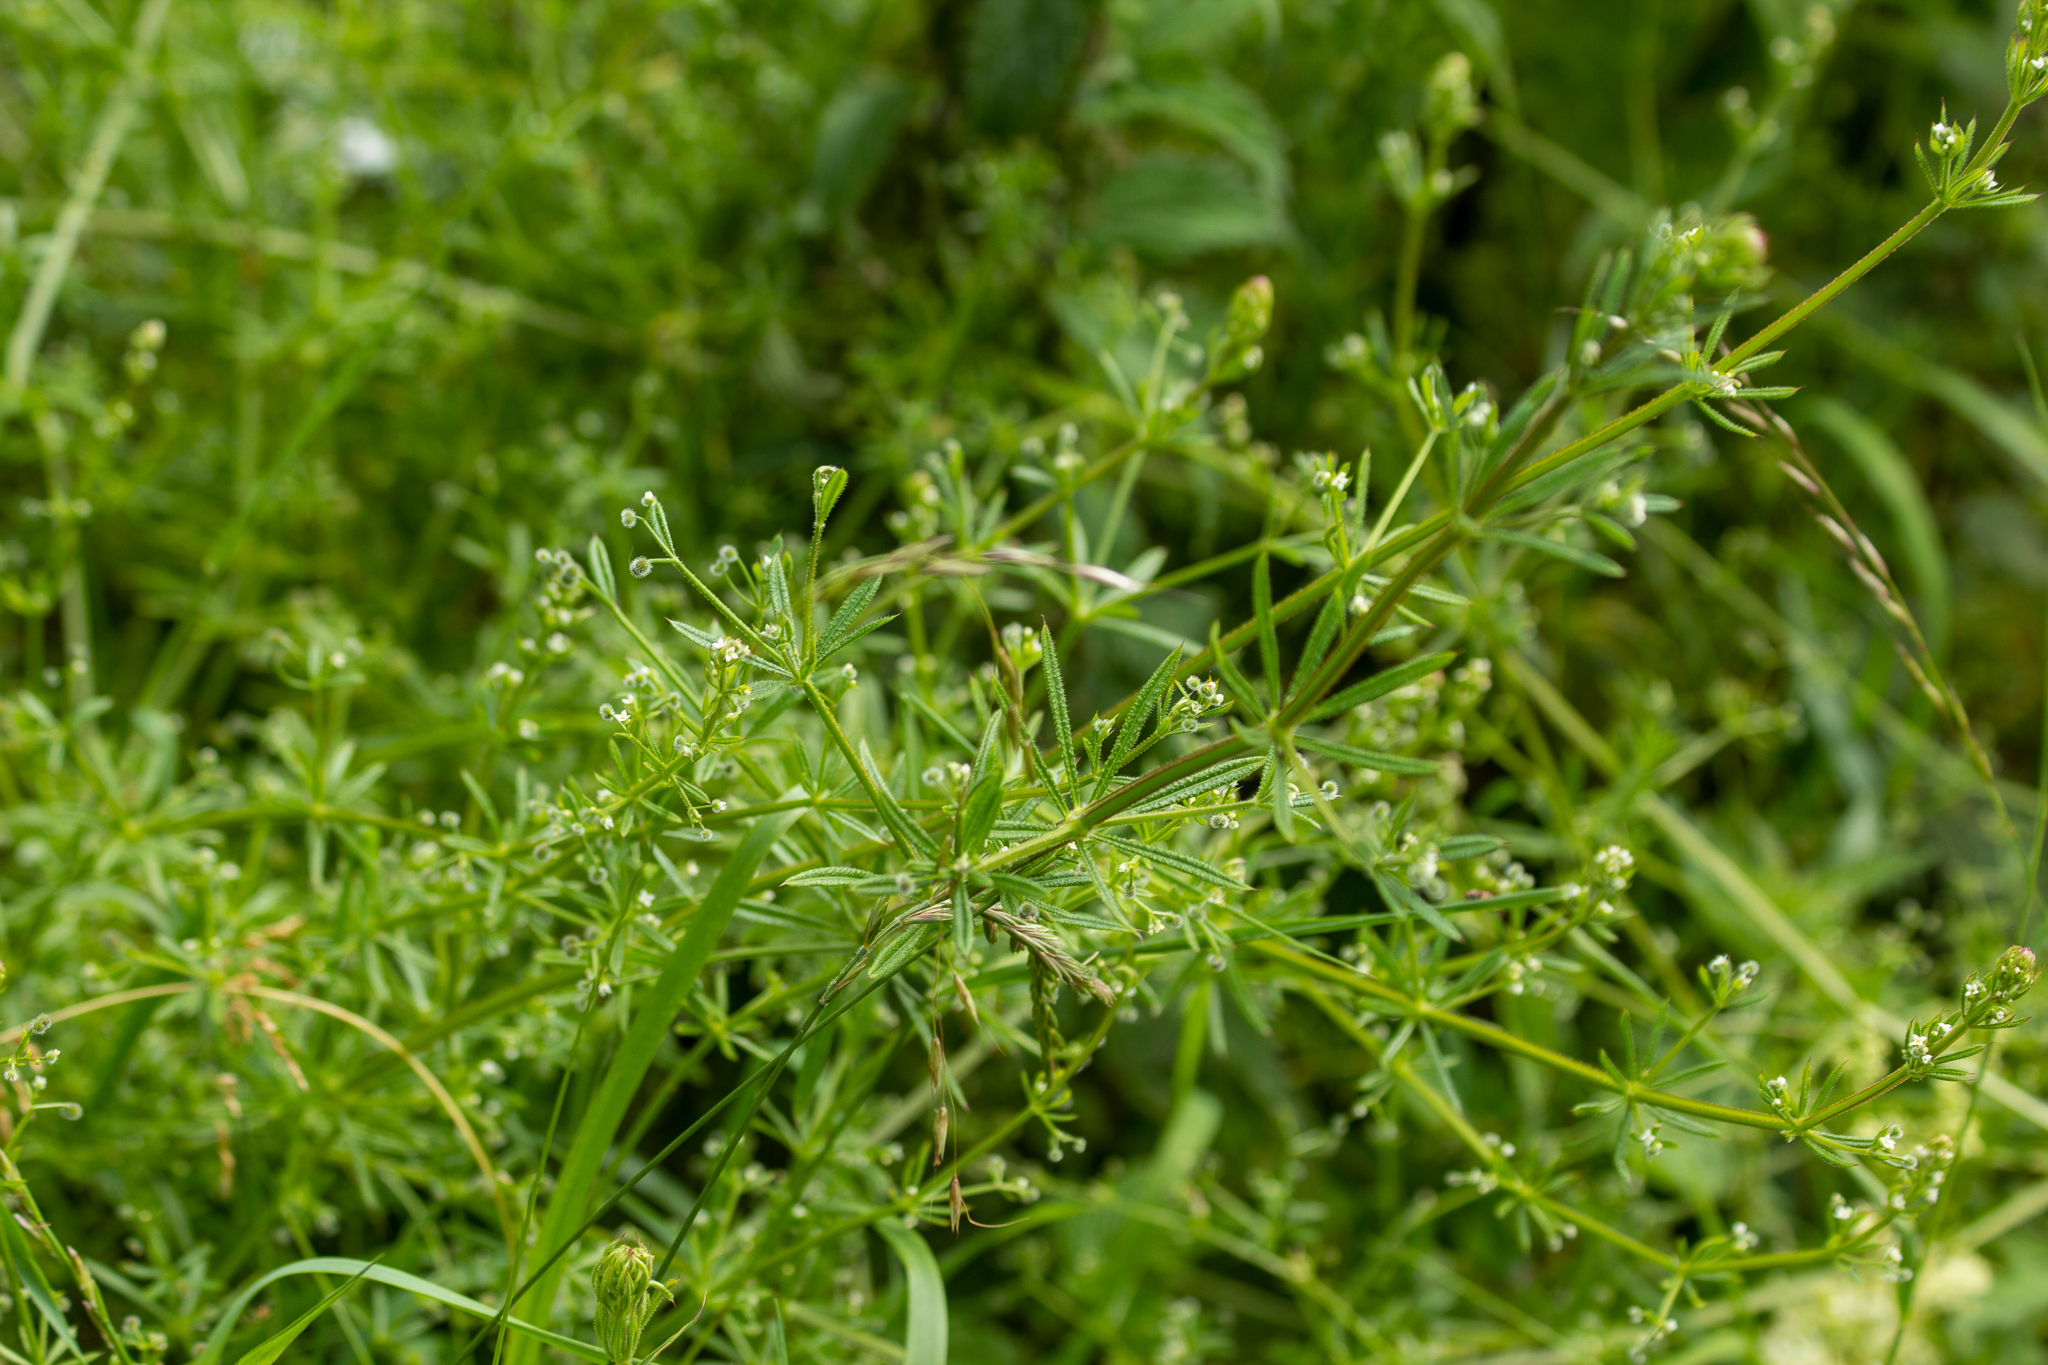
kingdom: Plantae
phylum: Tracheophyta
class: Magnoliopsida
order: Gentianales
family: Rubiaceae
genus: Galium
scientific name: Galium aparine
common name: Cleavers
